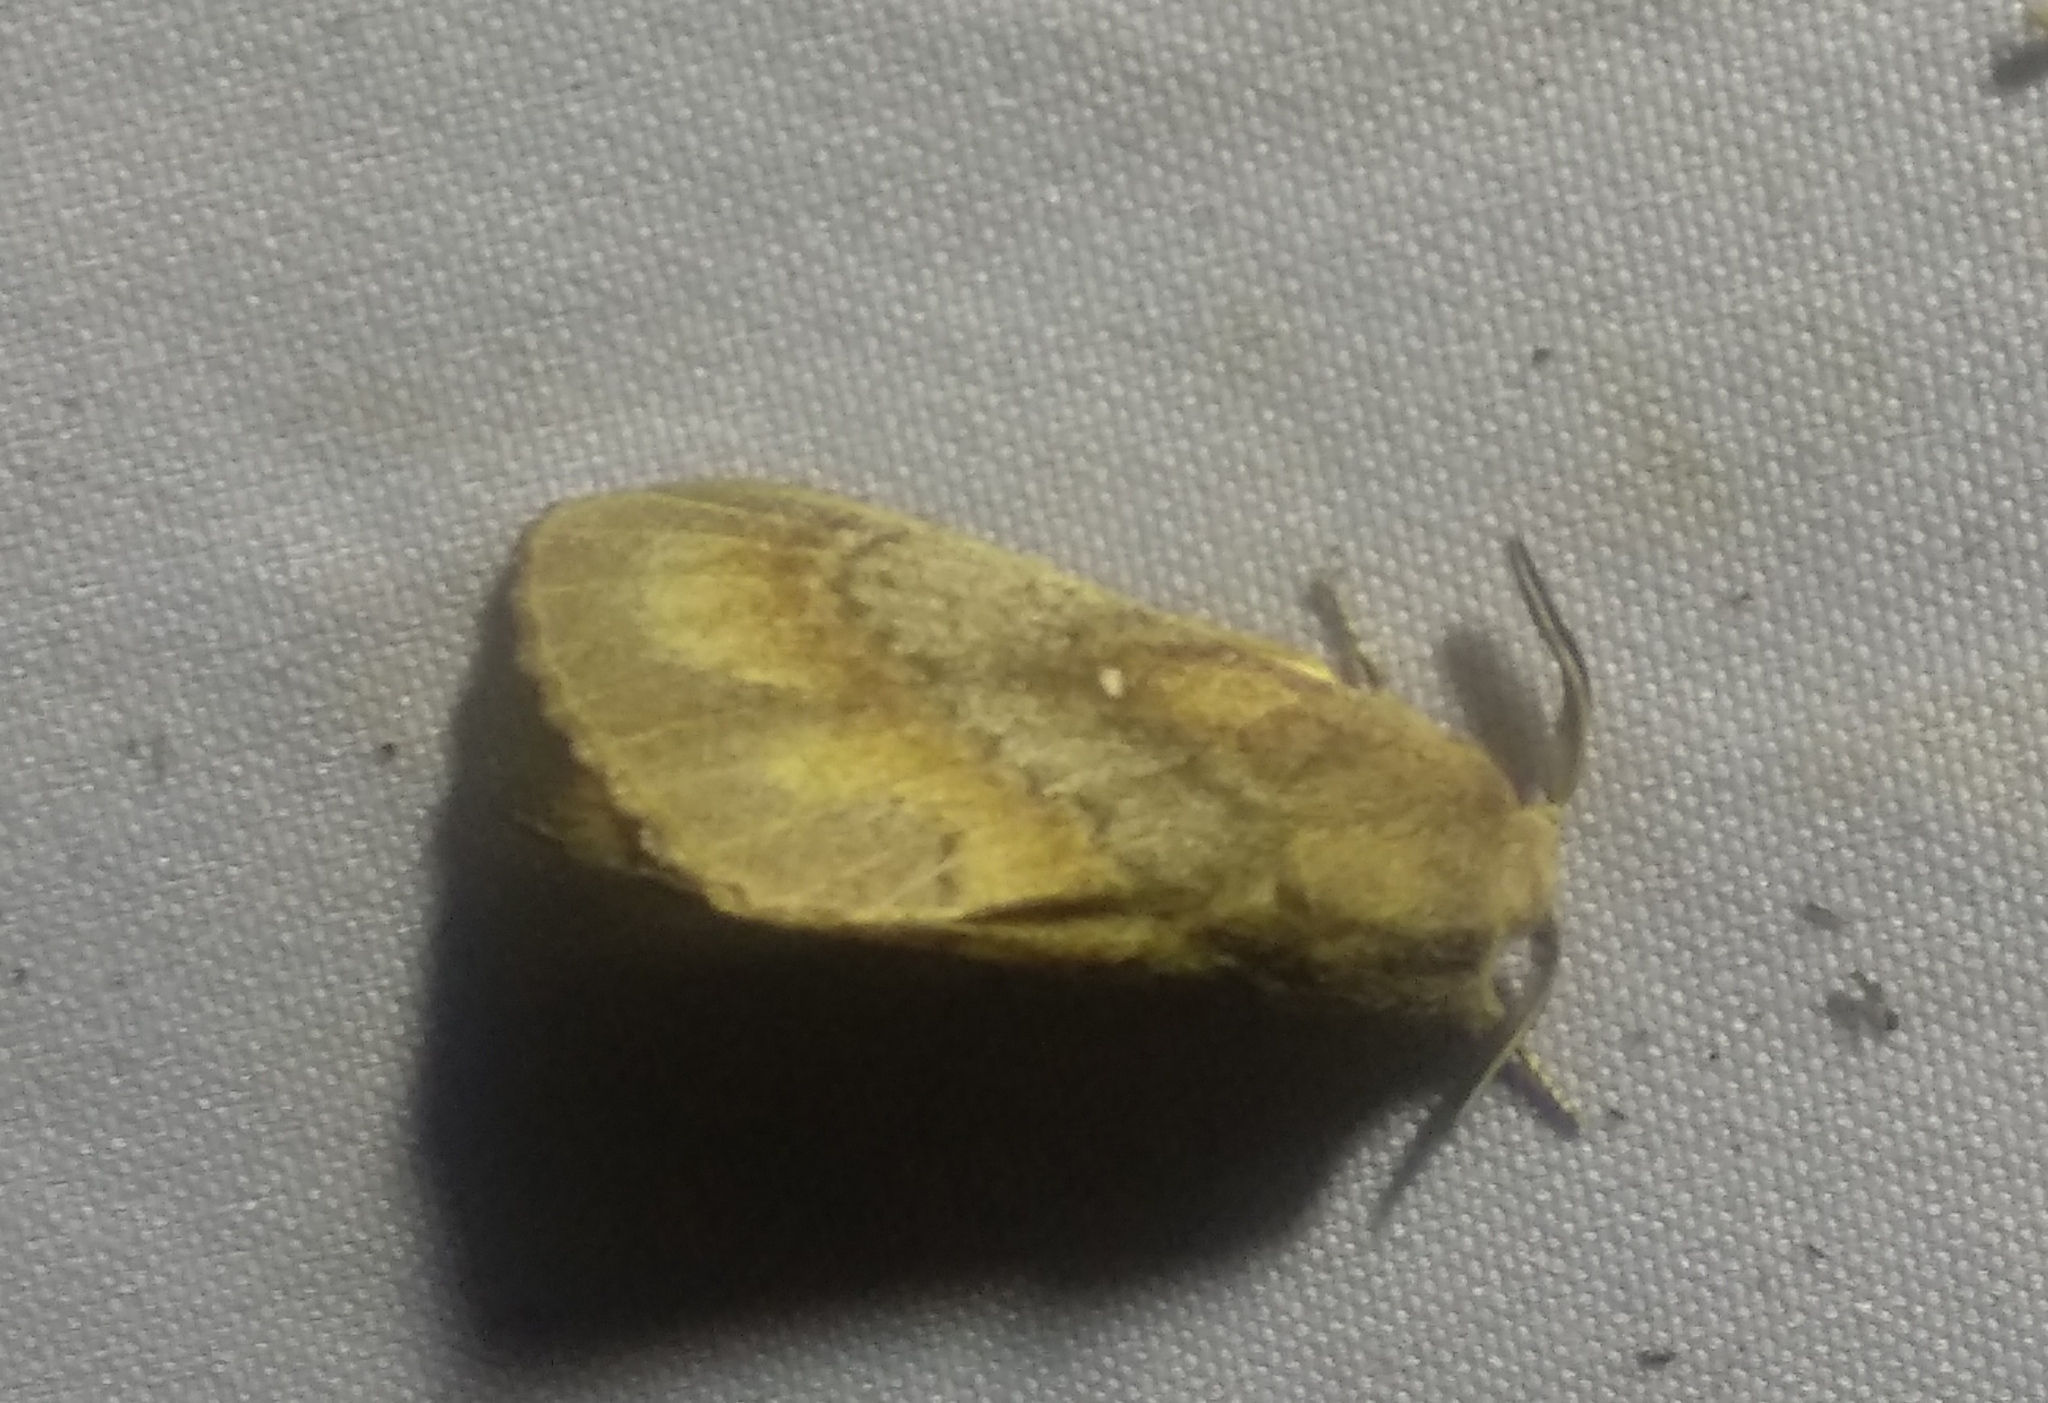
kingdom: Animalia
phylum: Arthropoda
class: Insecta
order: Lepidoptera
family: Lasiocampidae
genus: Dendrolimus
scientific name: Dendrolimus pini
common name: Pine-tree lappet
